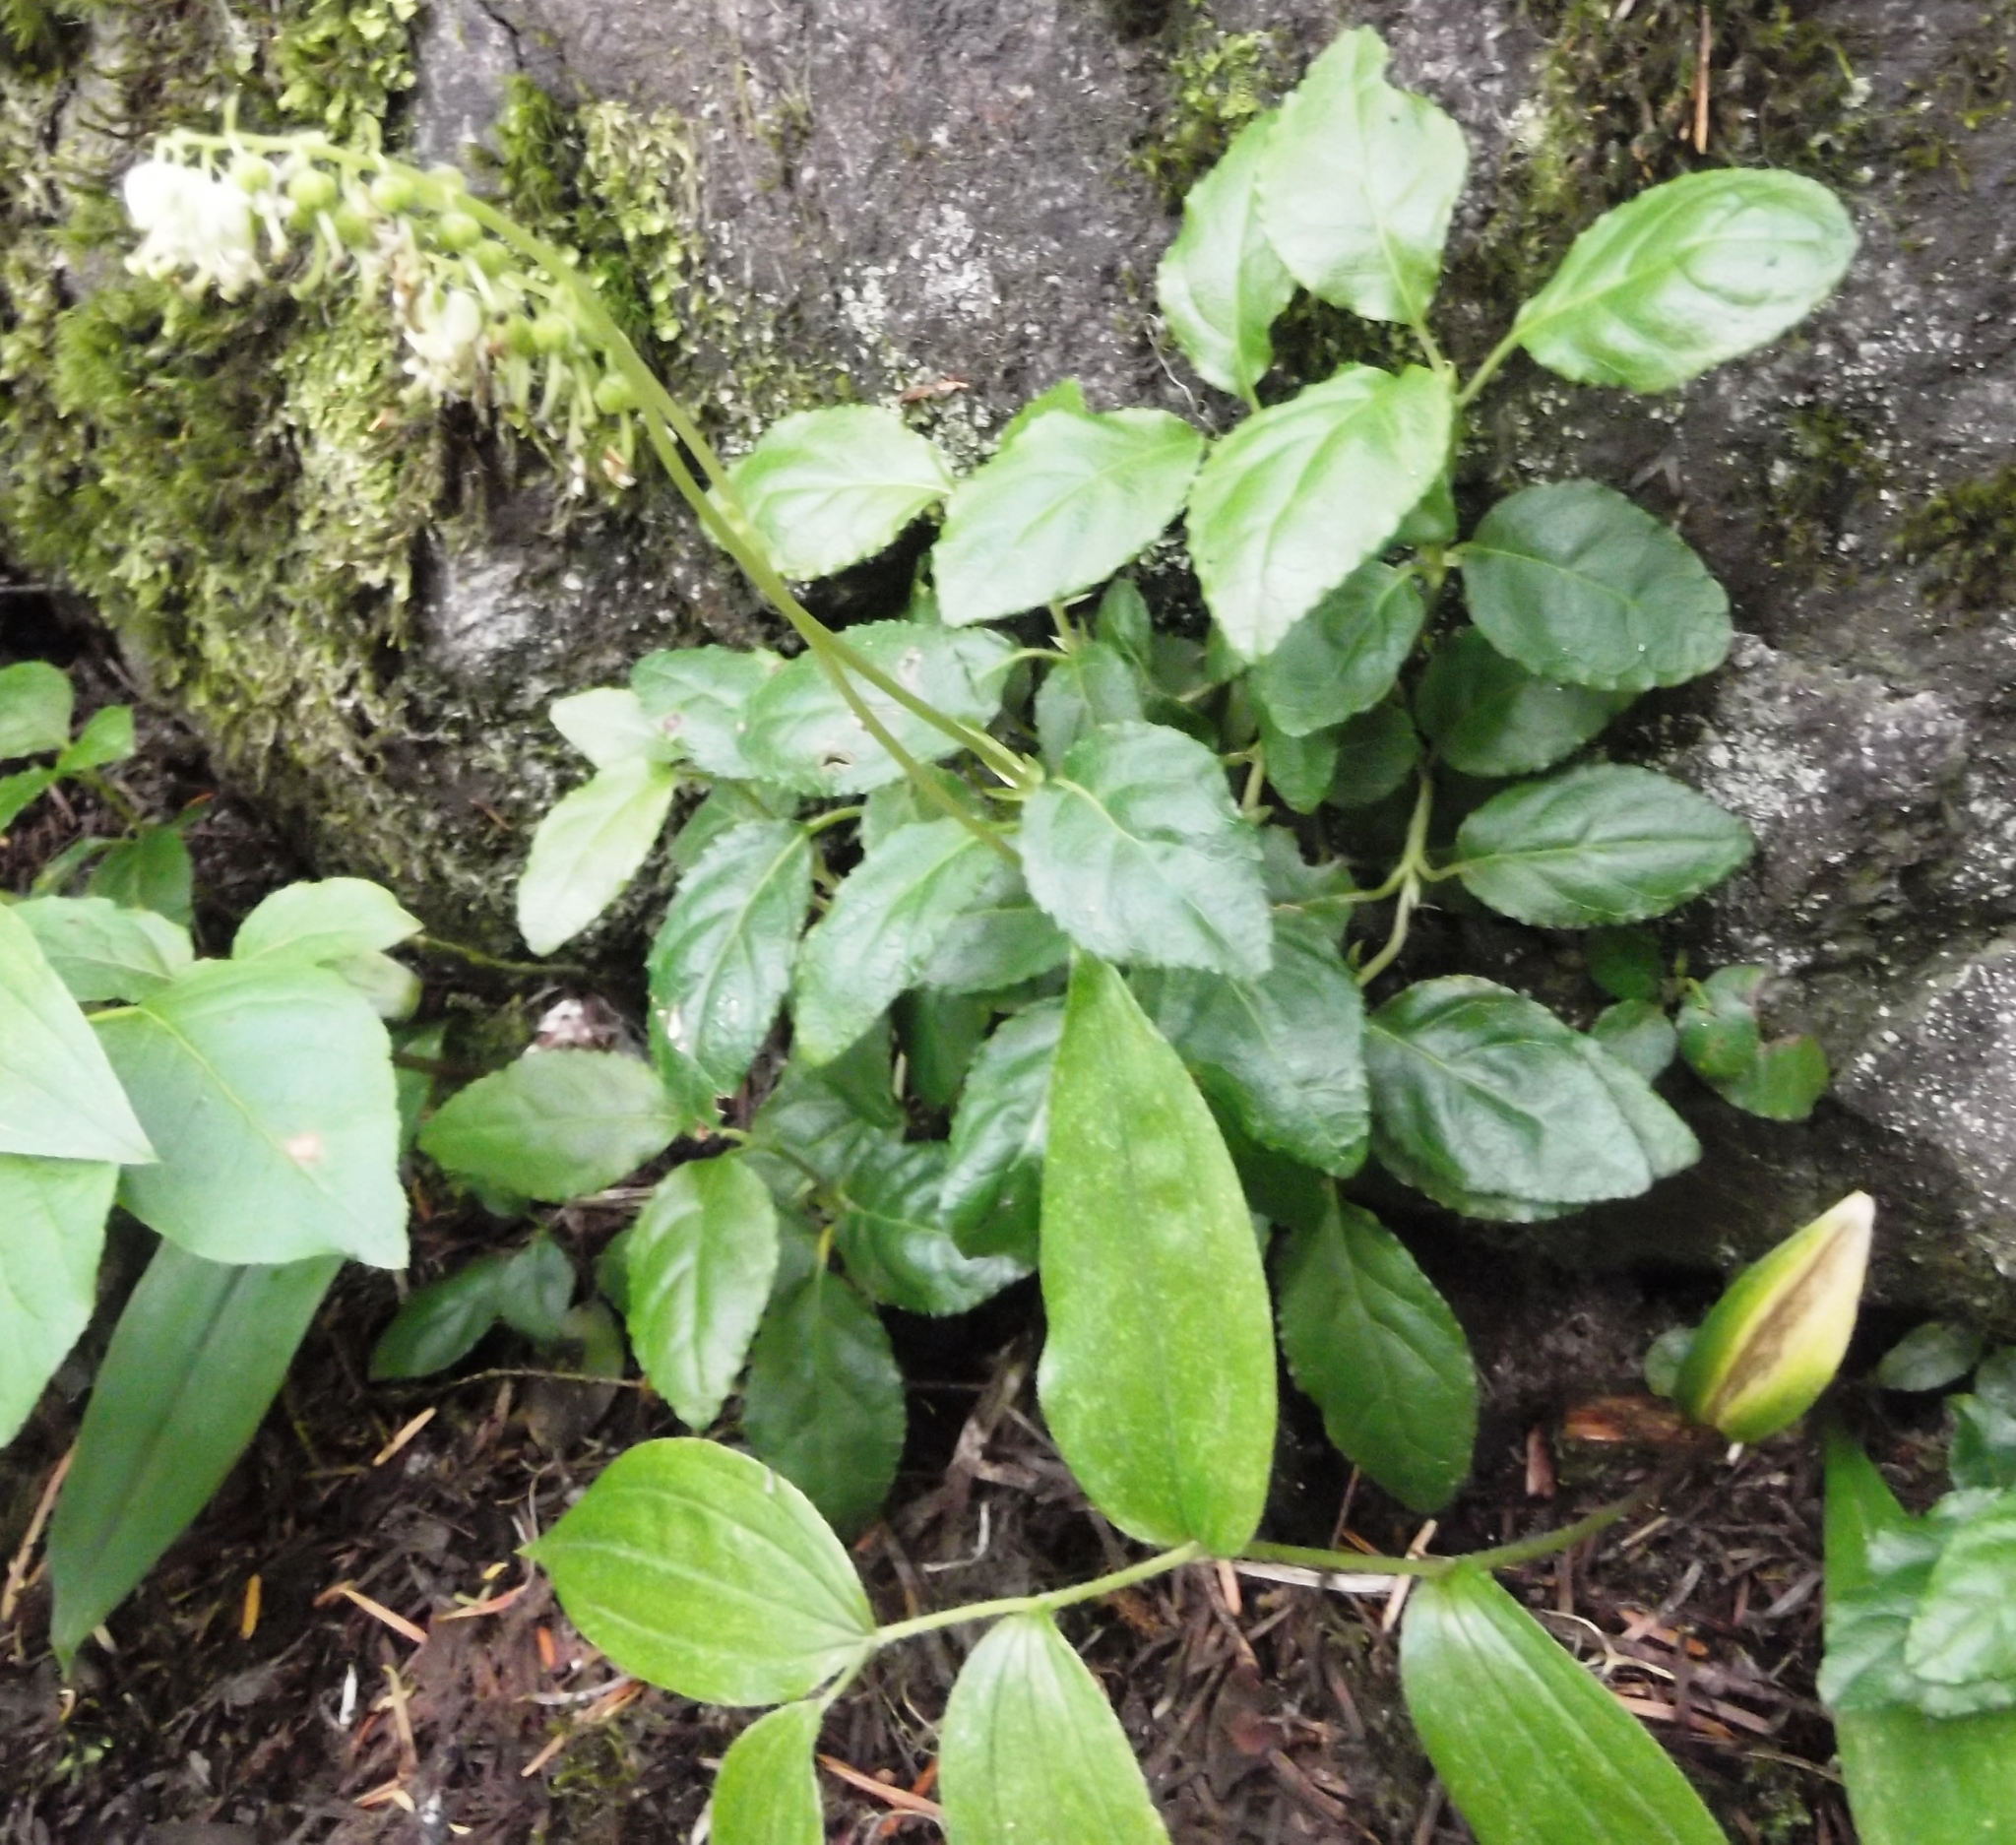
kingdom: Plantae
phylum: Tracheophyta
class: Magnoliopsida
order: Ericales
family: Ericaceae
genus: Orthilia
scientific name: Orthilia secunda
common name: One-sided orthilia
